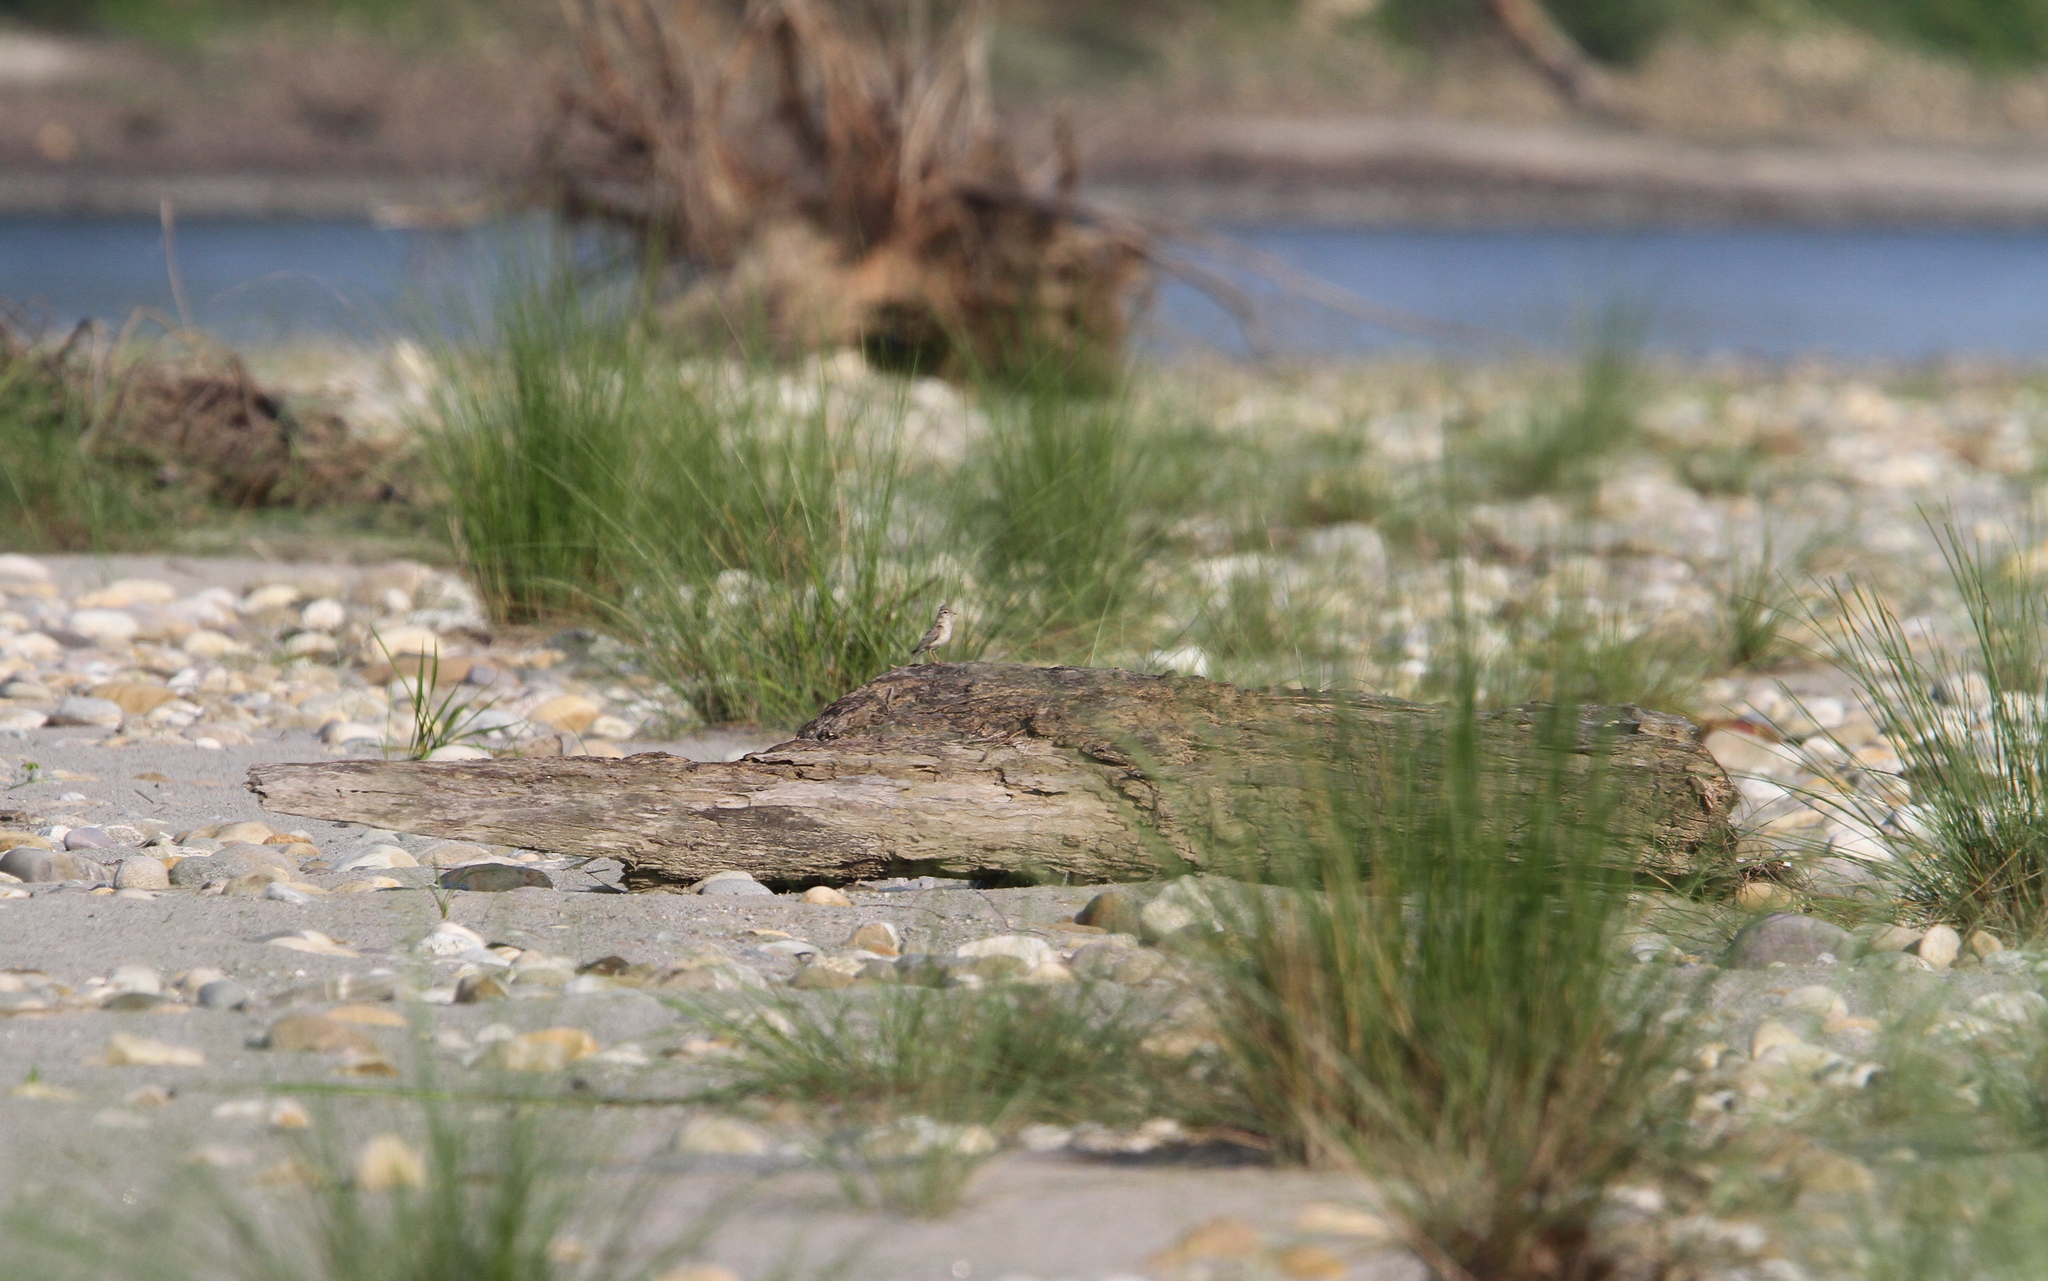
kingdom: Animalia
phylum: Chordata
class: Aves
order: Passeriformes
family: Alaudidae
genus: Calandrella
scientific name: Calandrella raytal
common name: Sand lark
